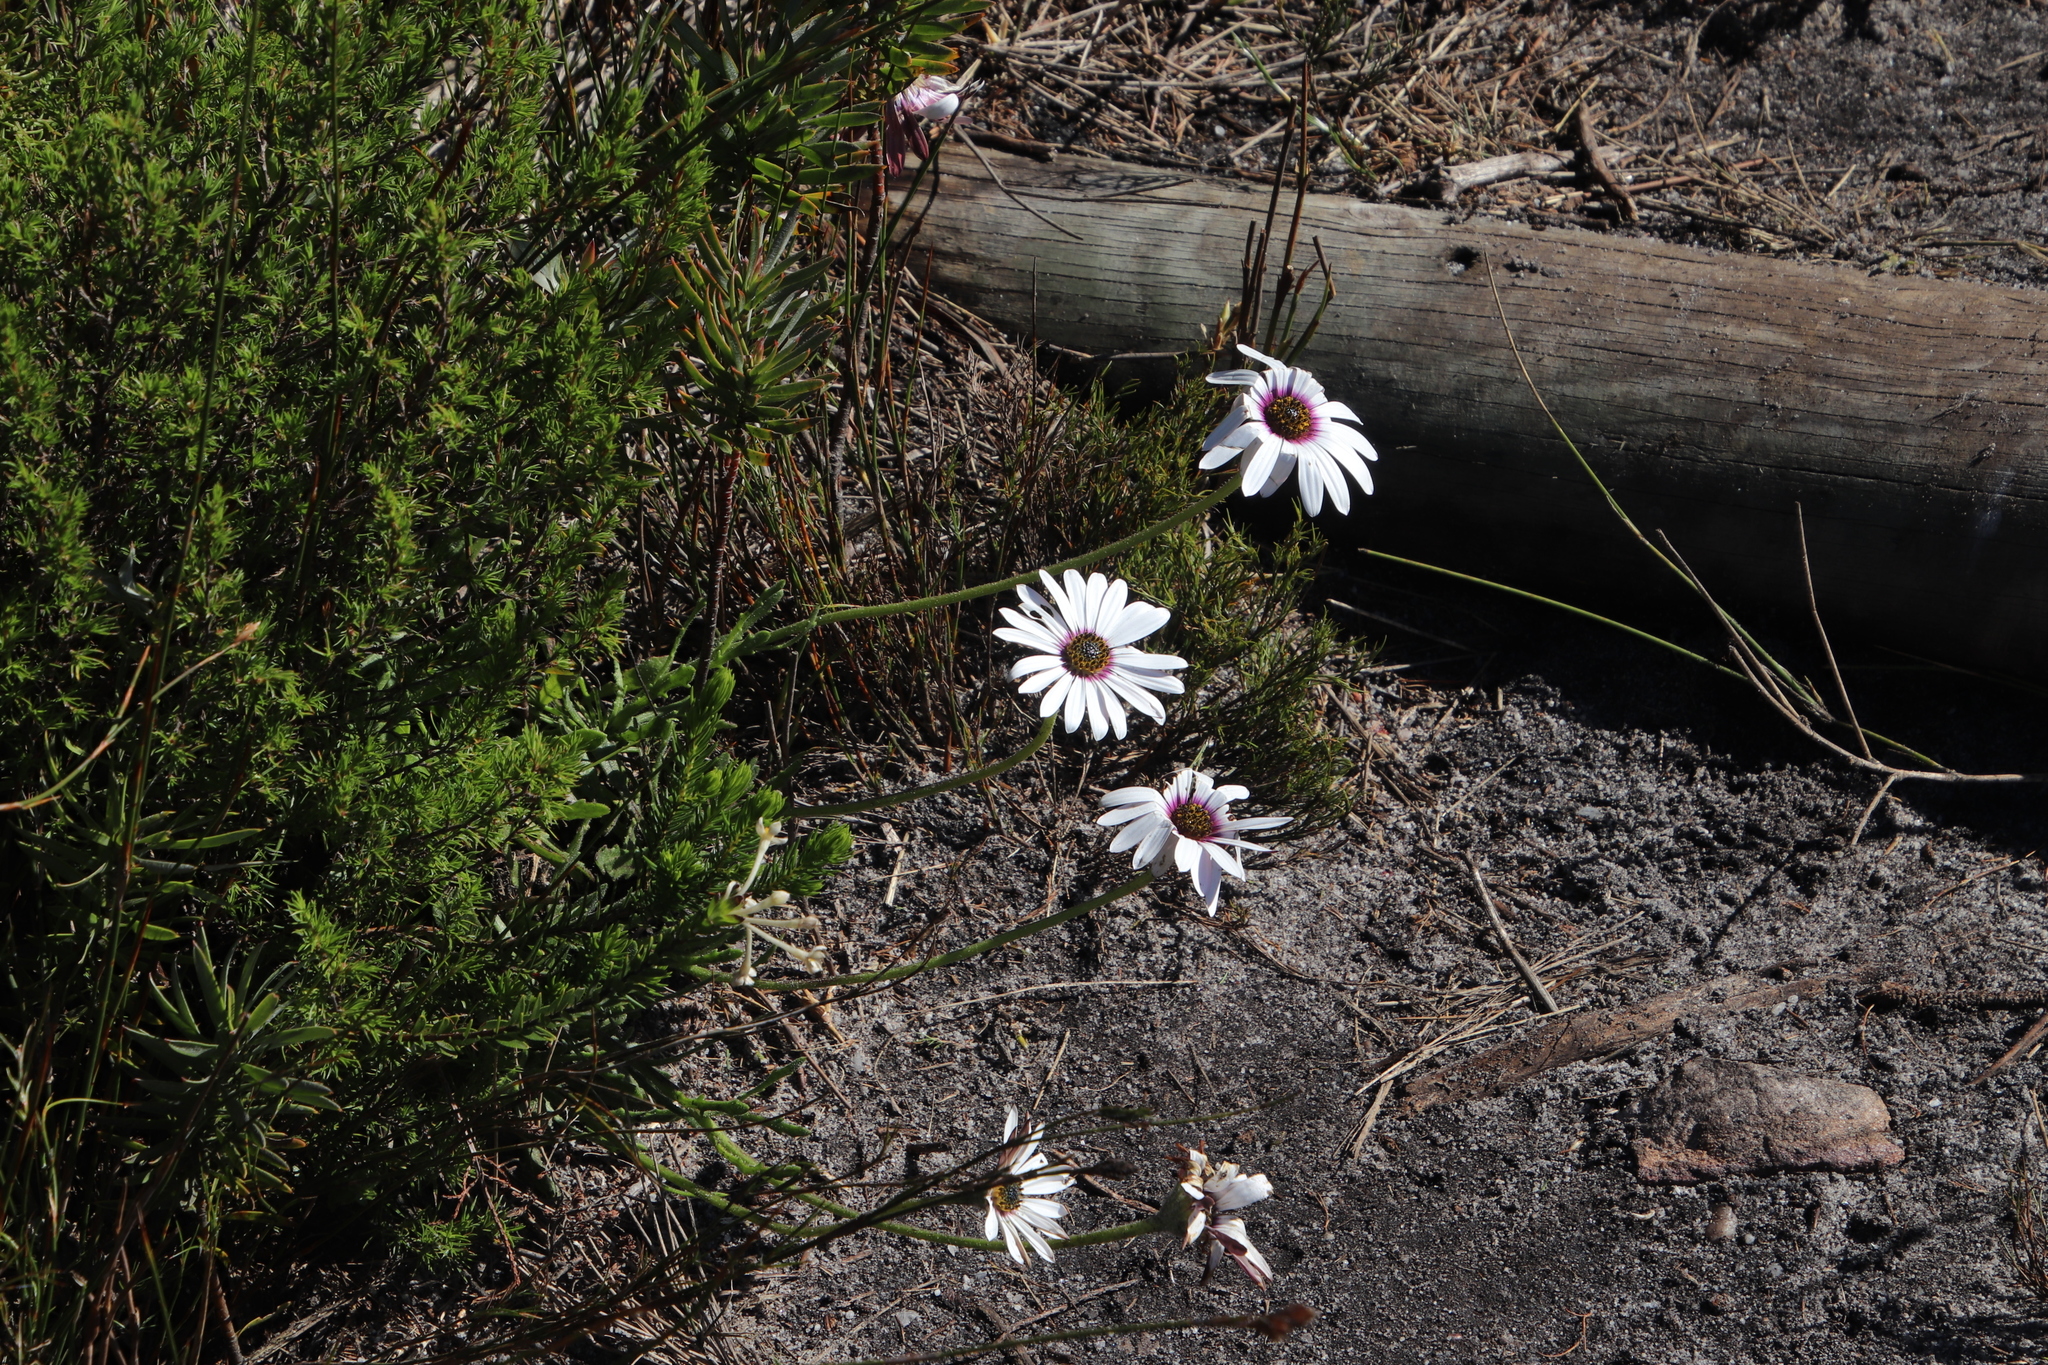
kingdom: Plantae
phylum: Tracheophyta
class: Magnoliopsida
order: Asterales
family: Asteraceae
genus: Dimorphotheca
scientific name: Dimorphotheca nudicaulis
